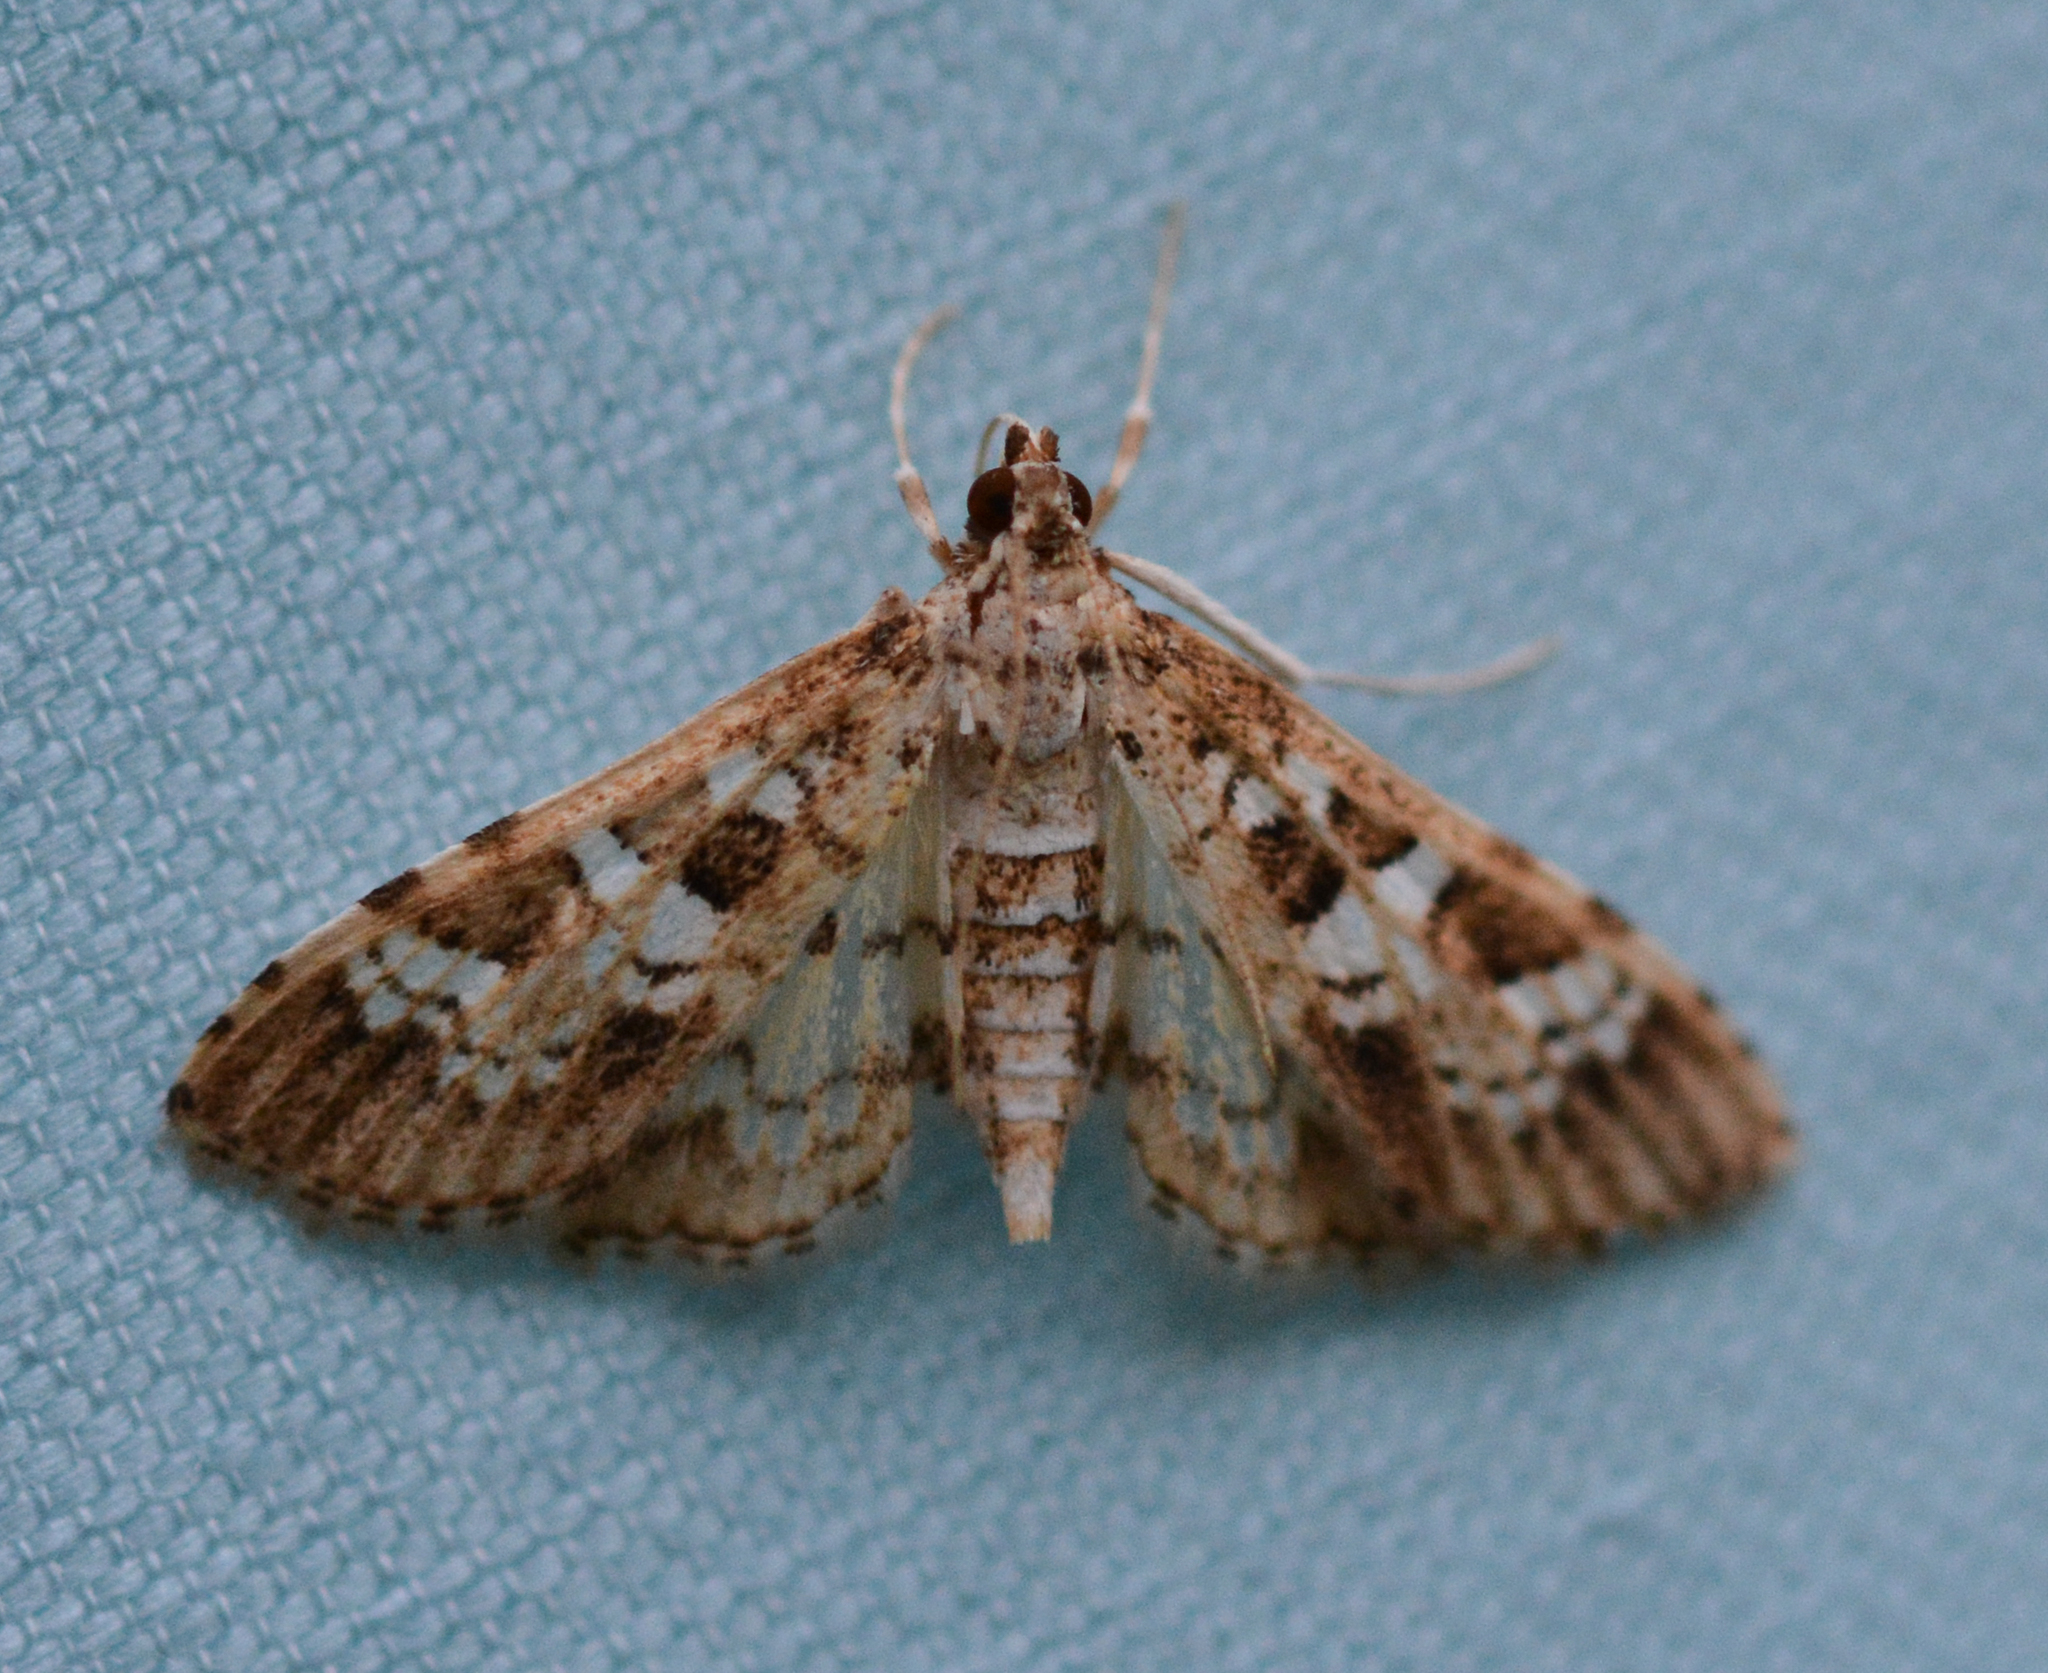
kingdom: Animalia
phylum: Arthropoda
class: Insecta
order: Lepidoptera
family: Crambidae
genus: Samea
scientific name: Samea multiplicalis
